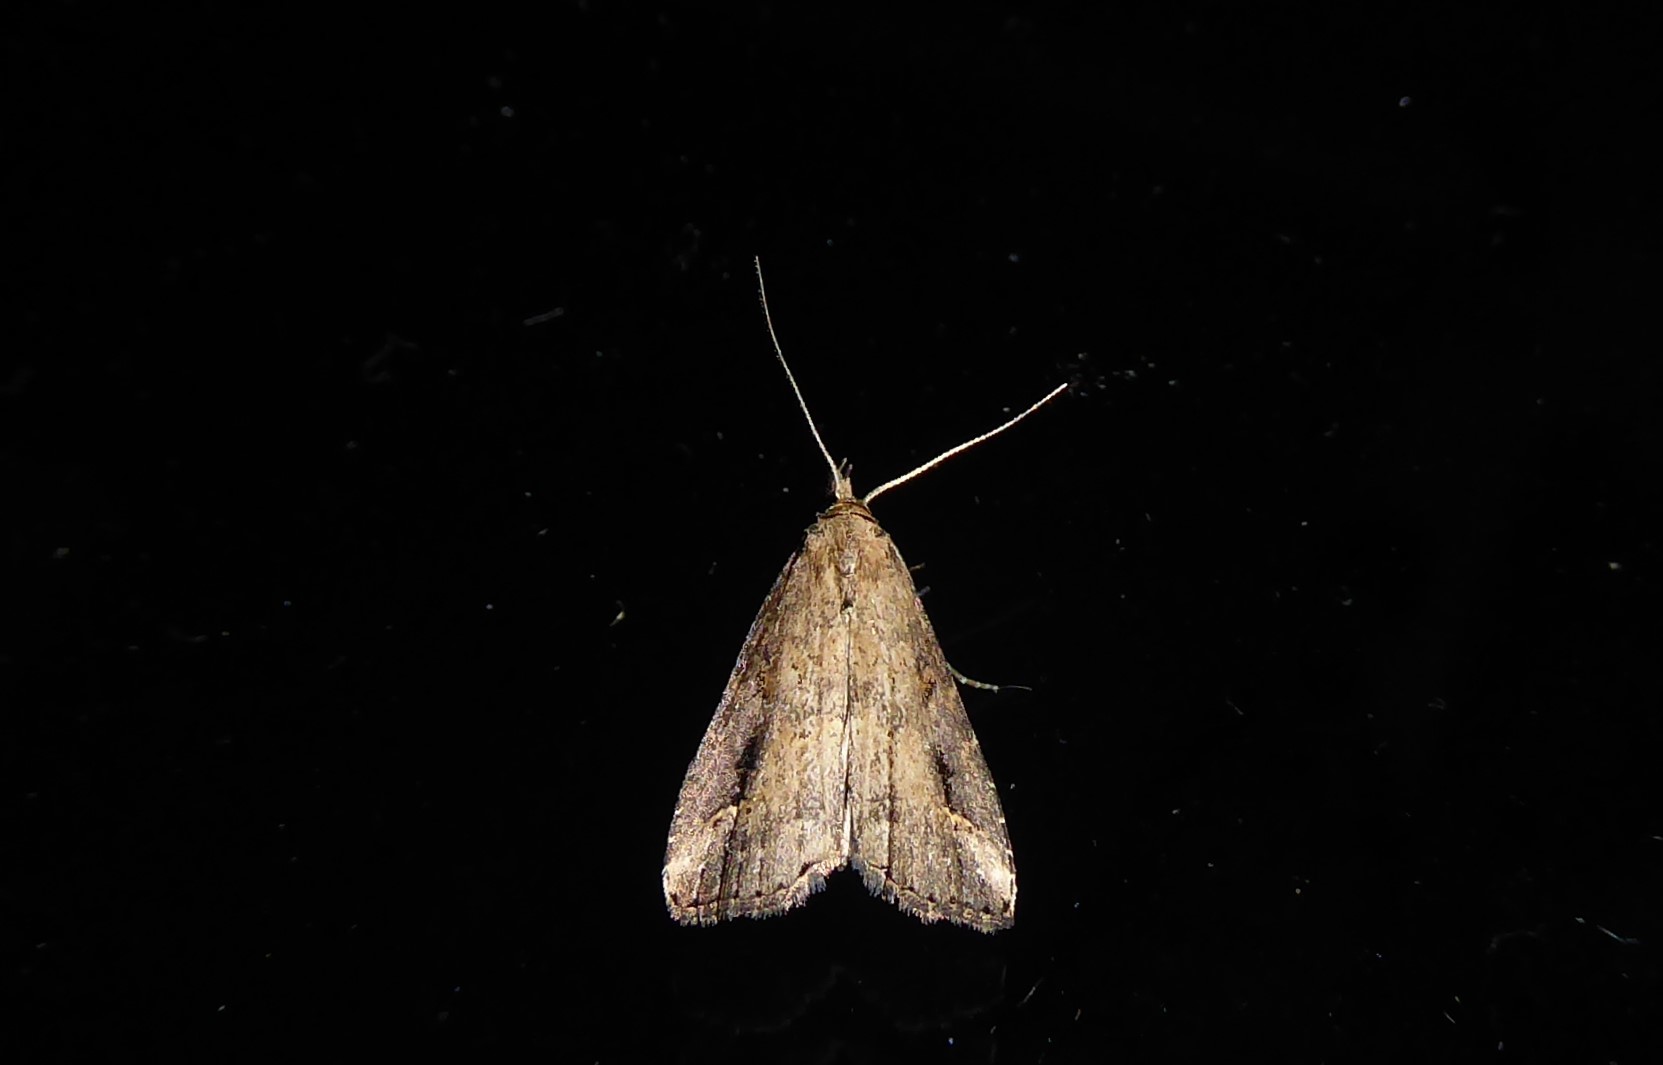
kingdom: Animalia
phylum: Arthropoda
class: Insecta
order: Lepidoptera
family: Erebidae
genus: Schrankia
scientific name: Schrankia costaestrigalis
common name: Pinion-streaked snout
